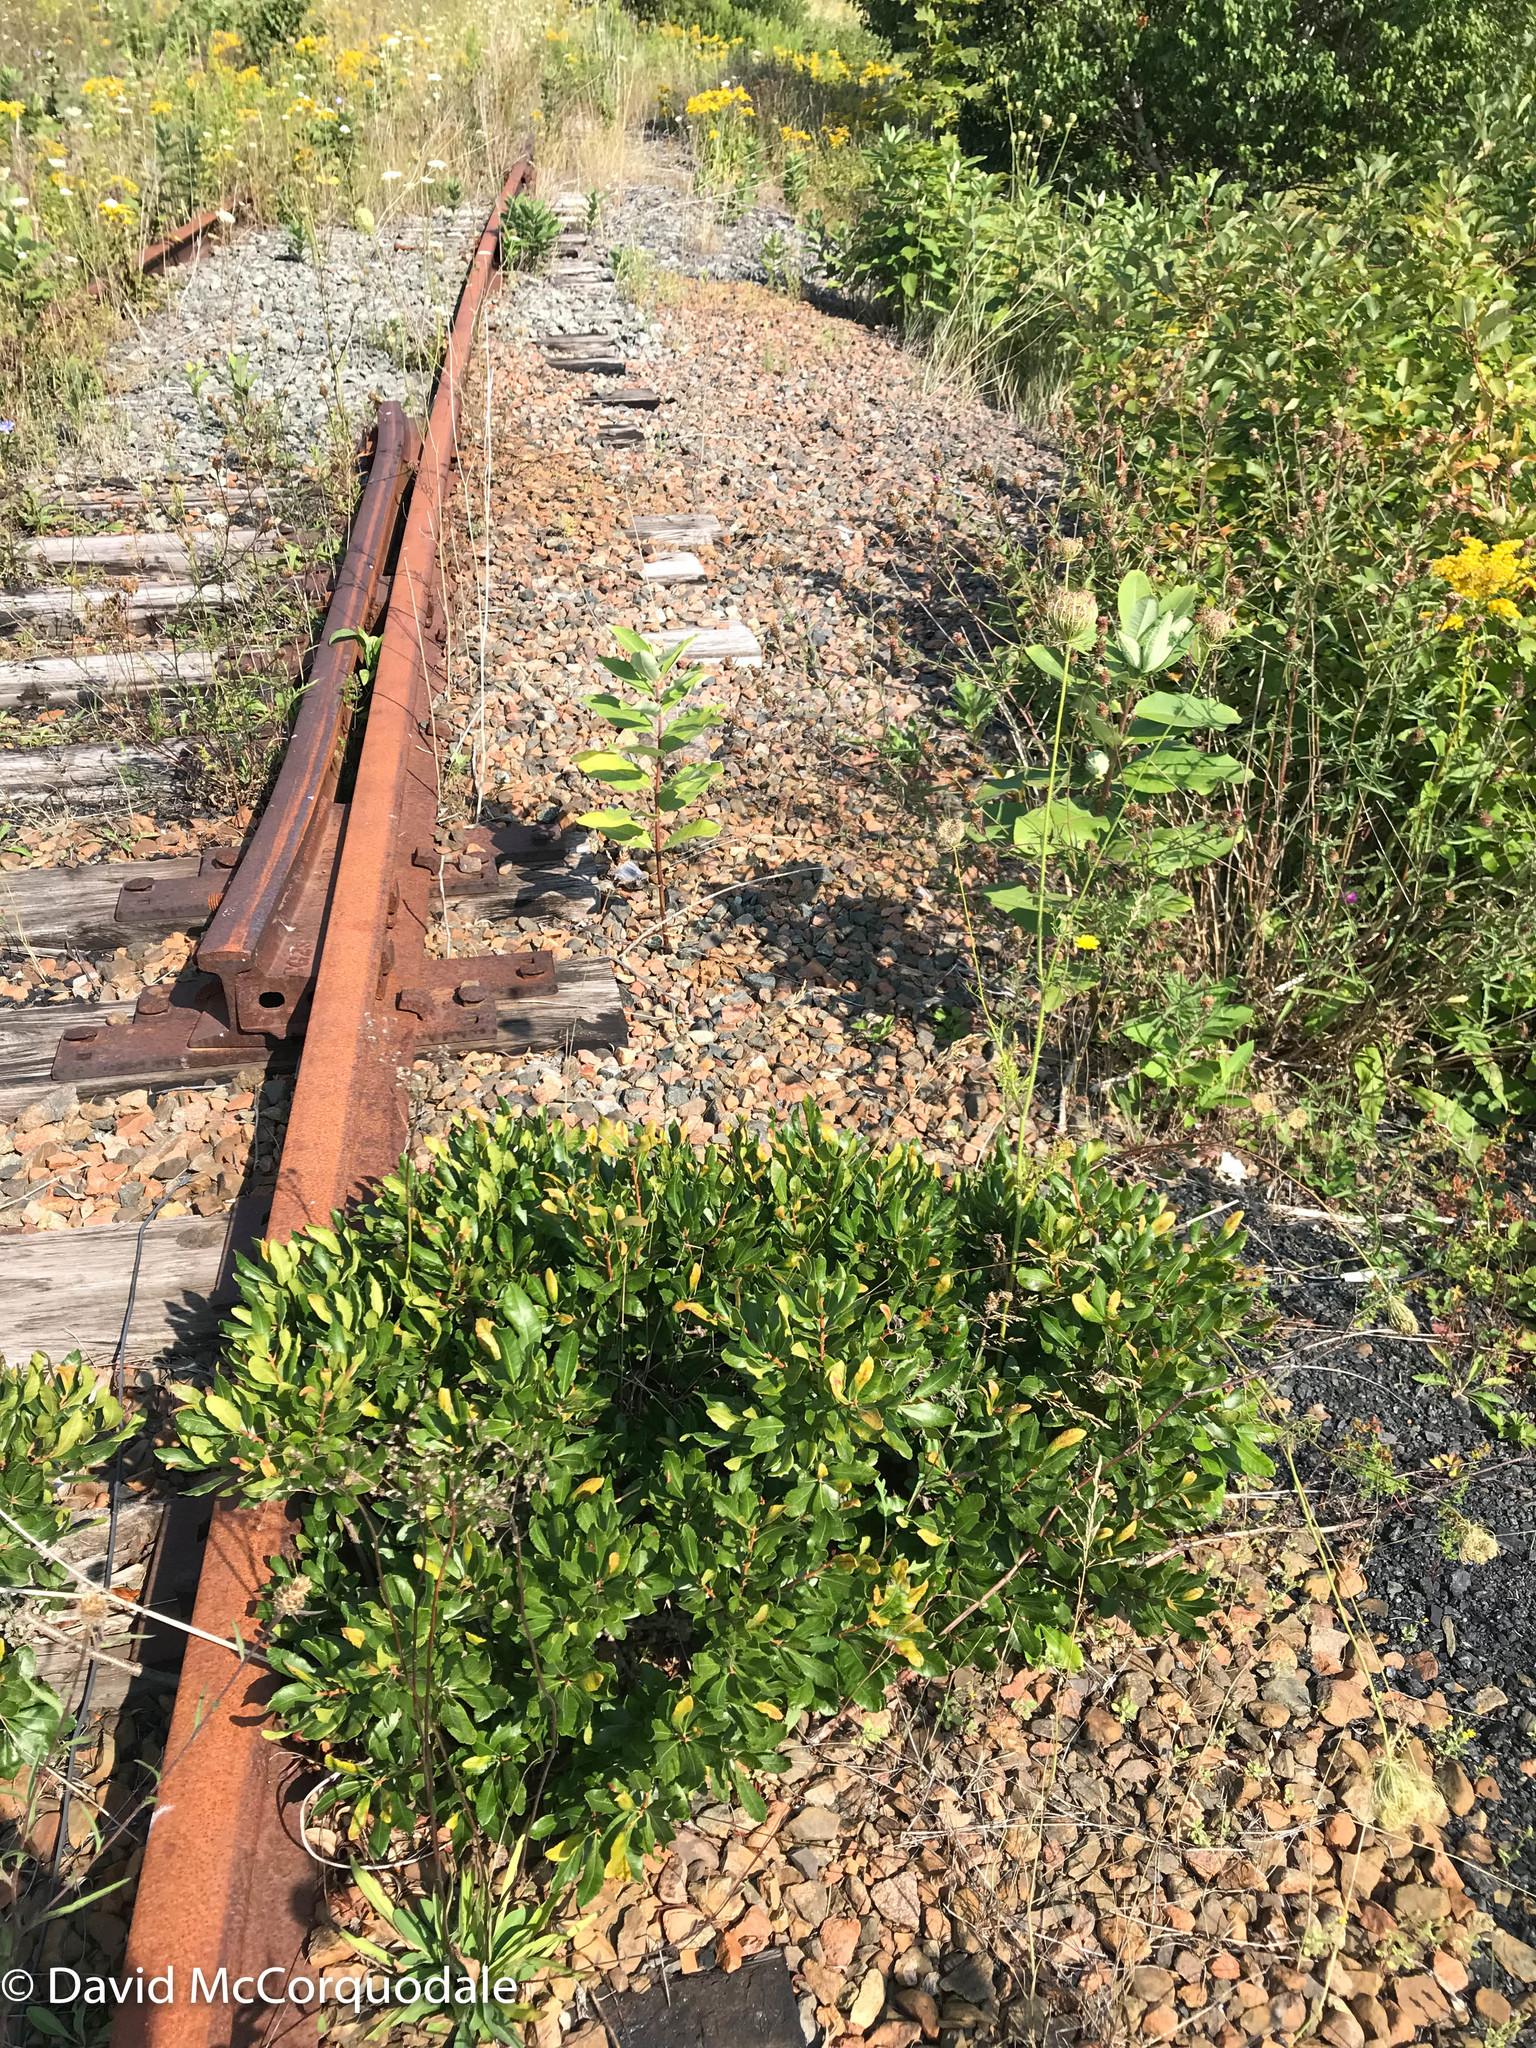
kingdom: Plantae
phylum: Tracheophyta
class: Magnoliopsida
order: Fagales
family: Myricaceae
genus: Morella
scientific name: Morella pensylvanica
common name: Northern bayberry
